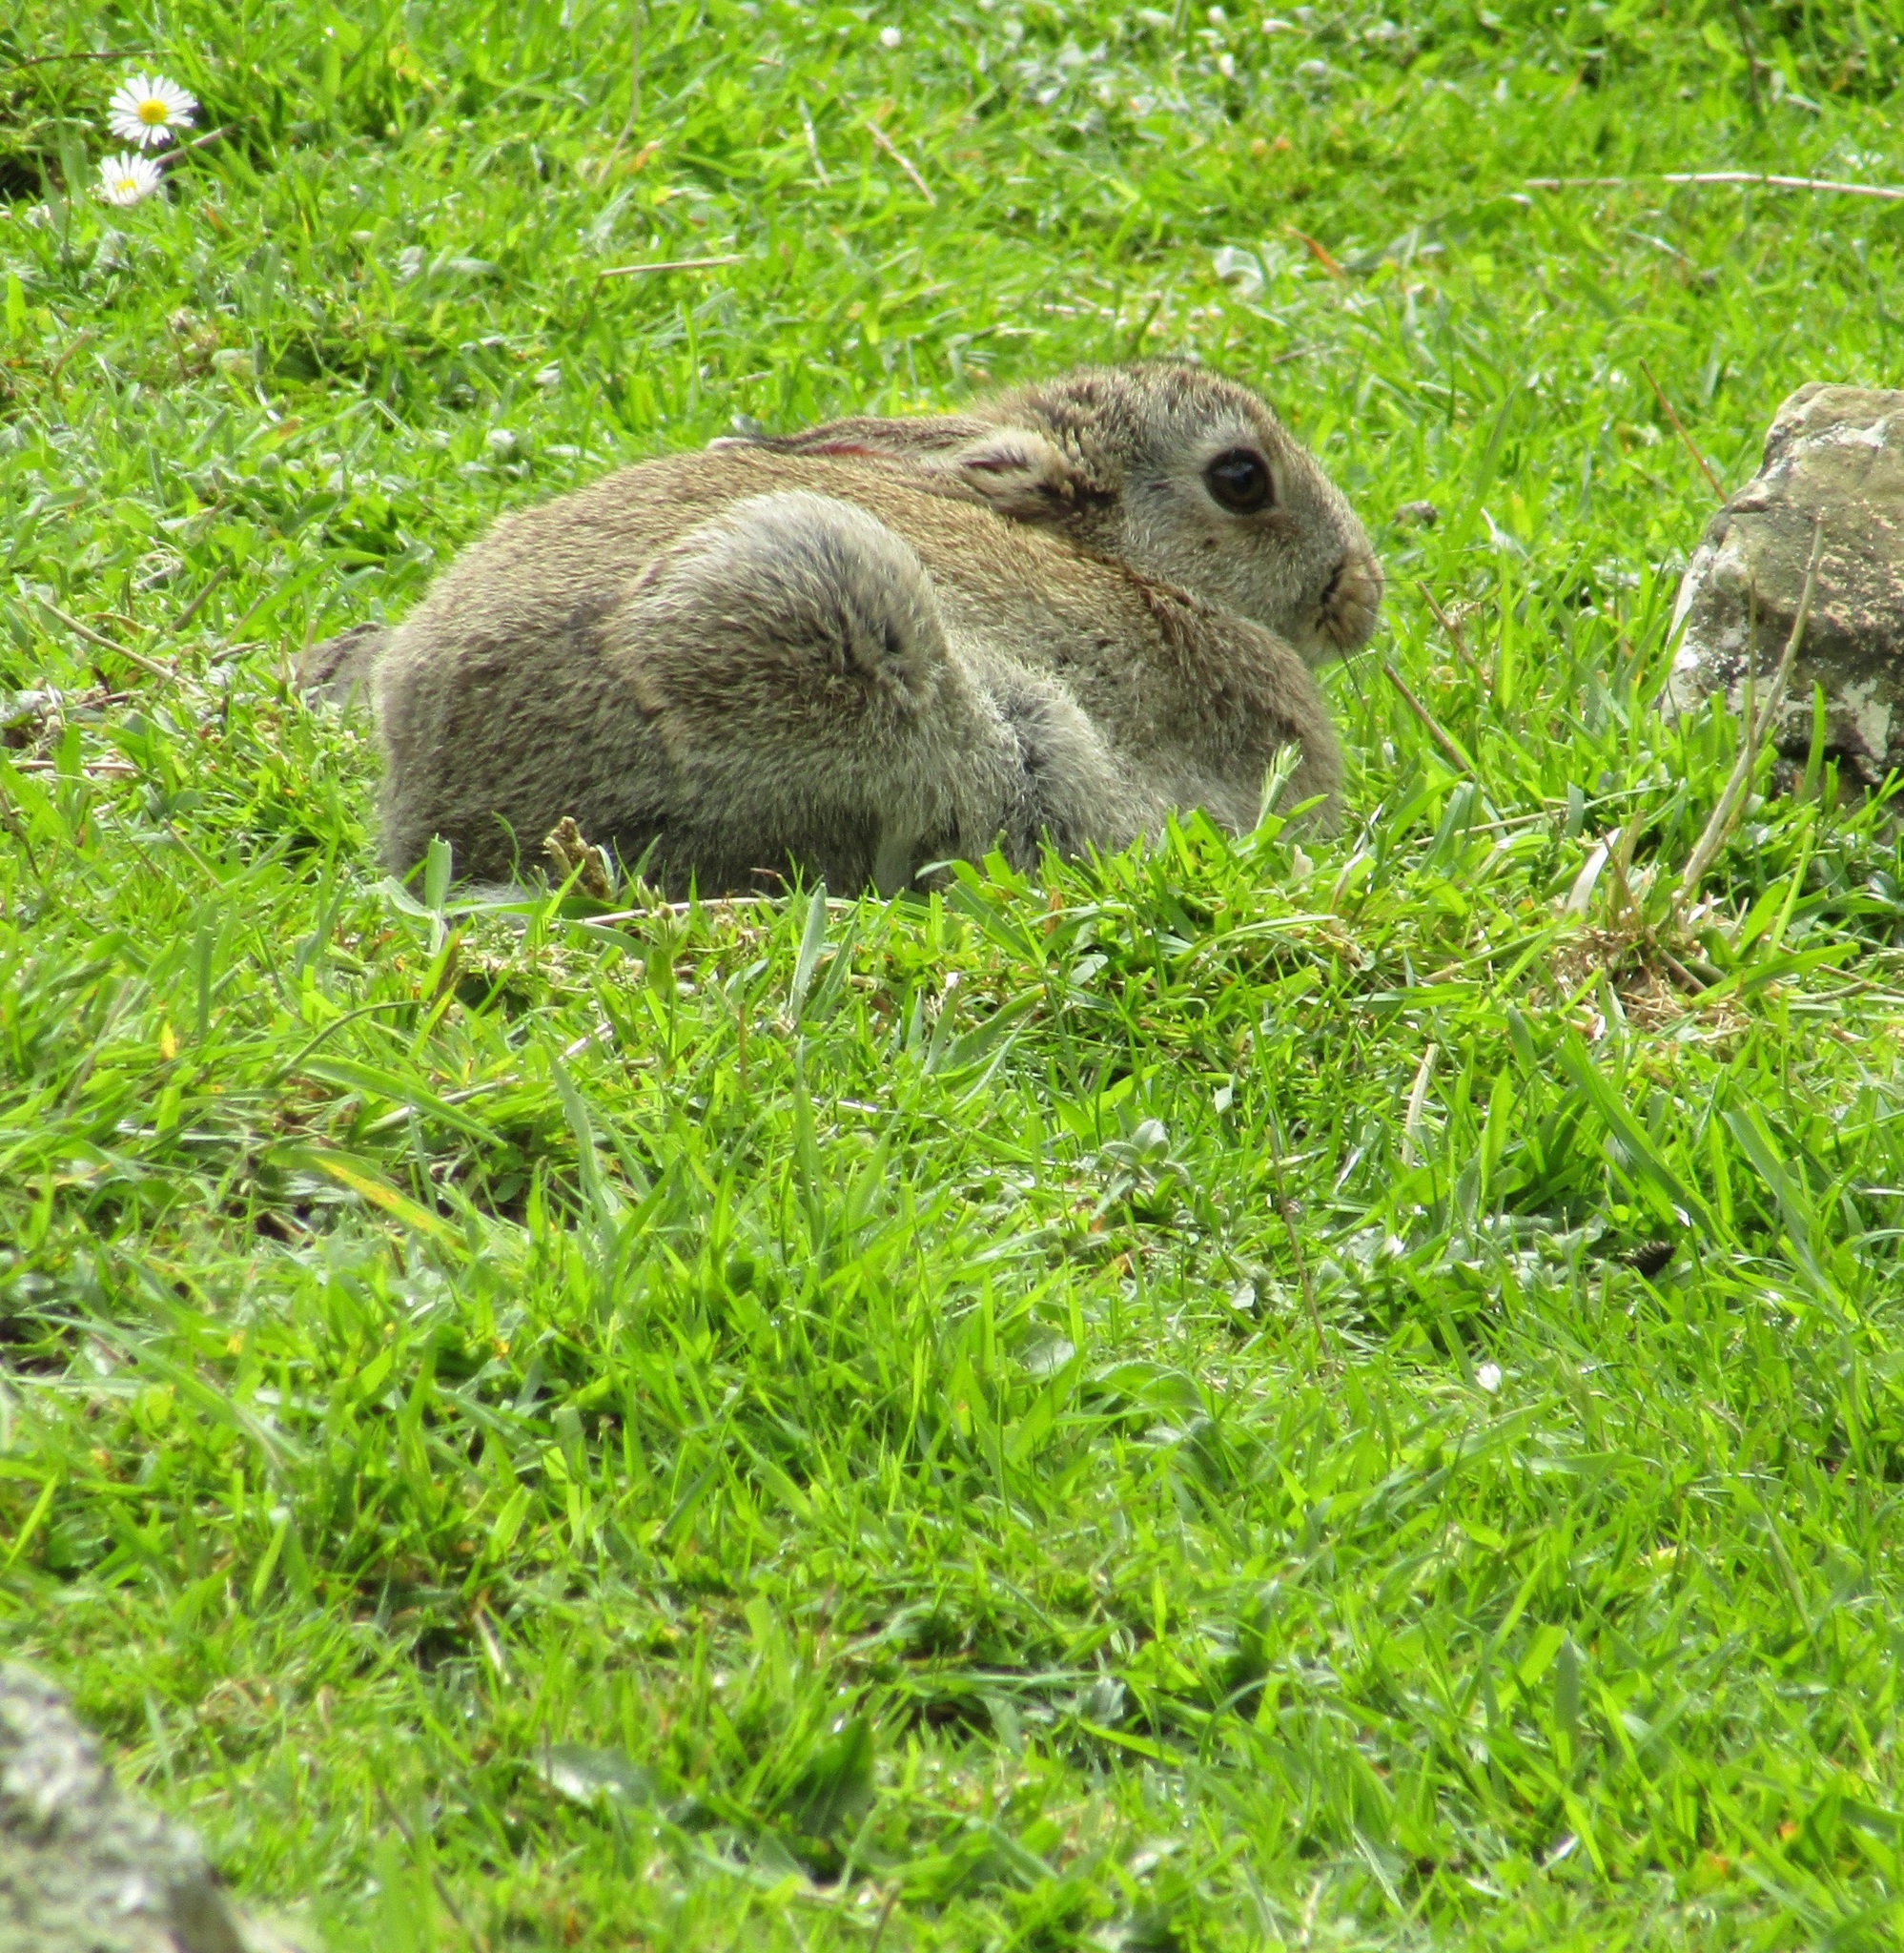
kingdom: Animalia
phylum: Chordata
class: Mammalia
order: Lagomorpha
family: Leporidae
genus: Oryctolagus
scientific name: Oryctolagus cuniculus
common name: European rabbit
